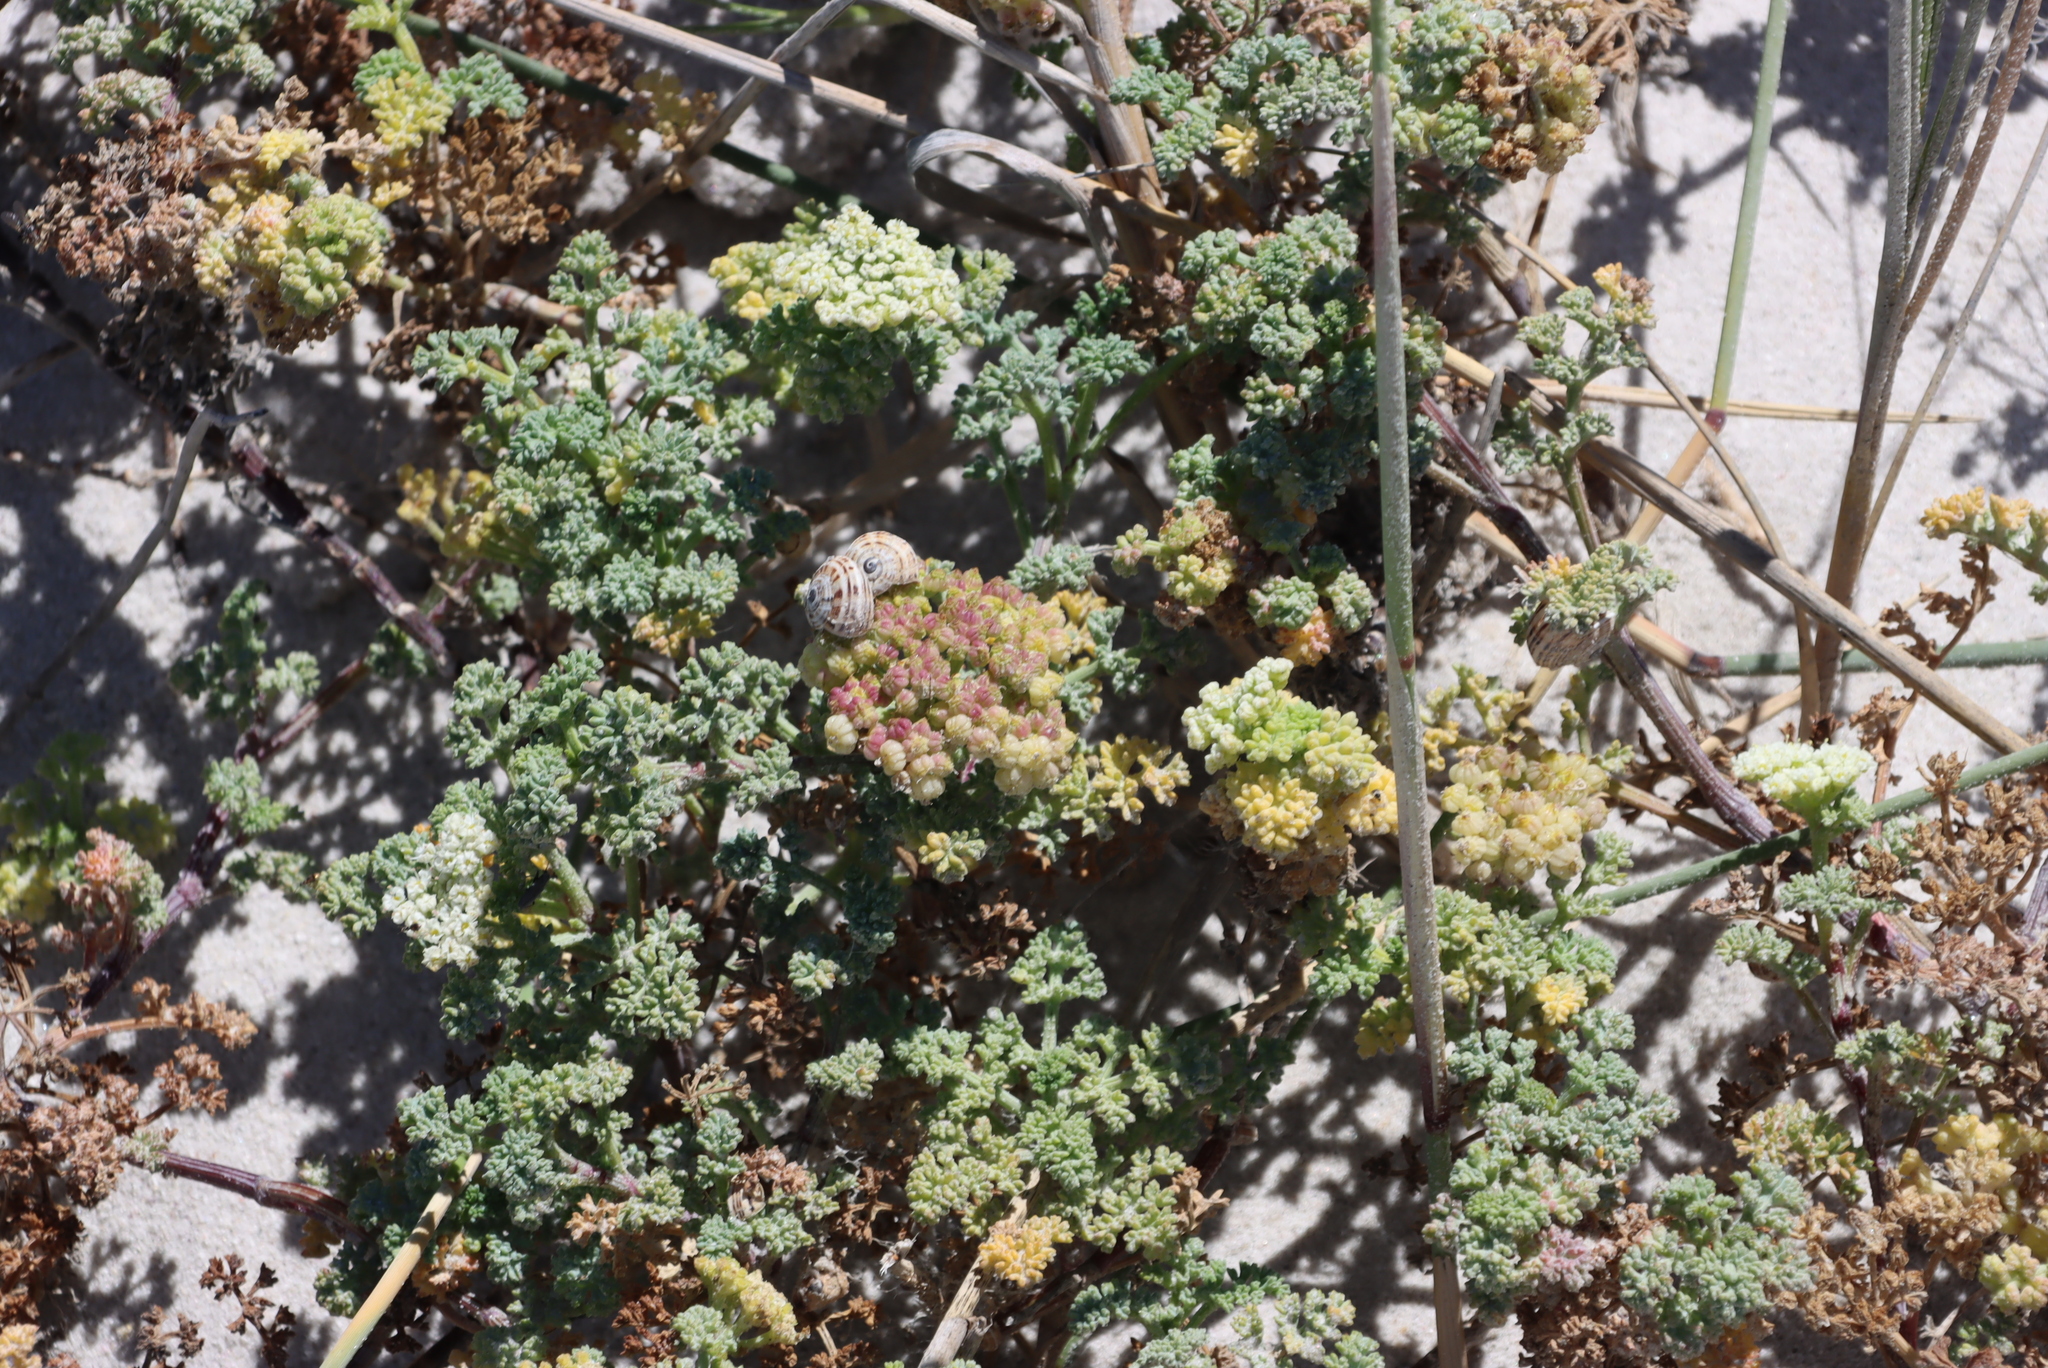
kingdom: Plantae
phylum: Tracheophyta
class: Magnoliopsida
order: Apiales
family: Apiaceae
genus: Dasispermum
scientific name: Dasispermum suffruticosum
